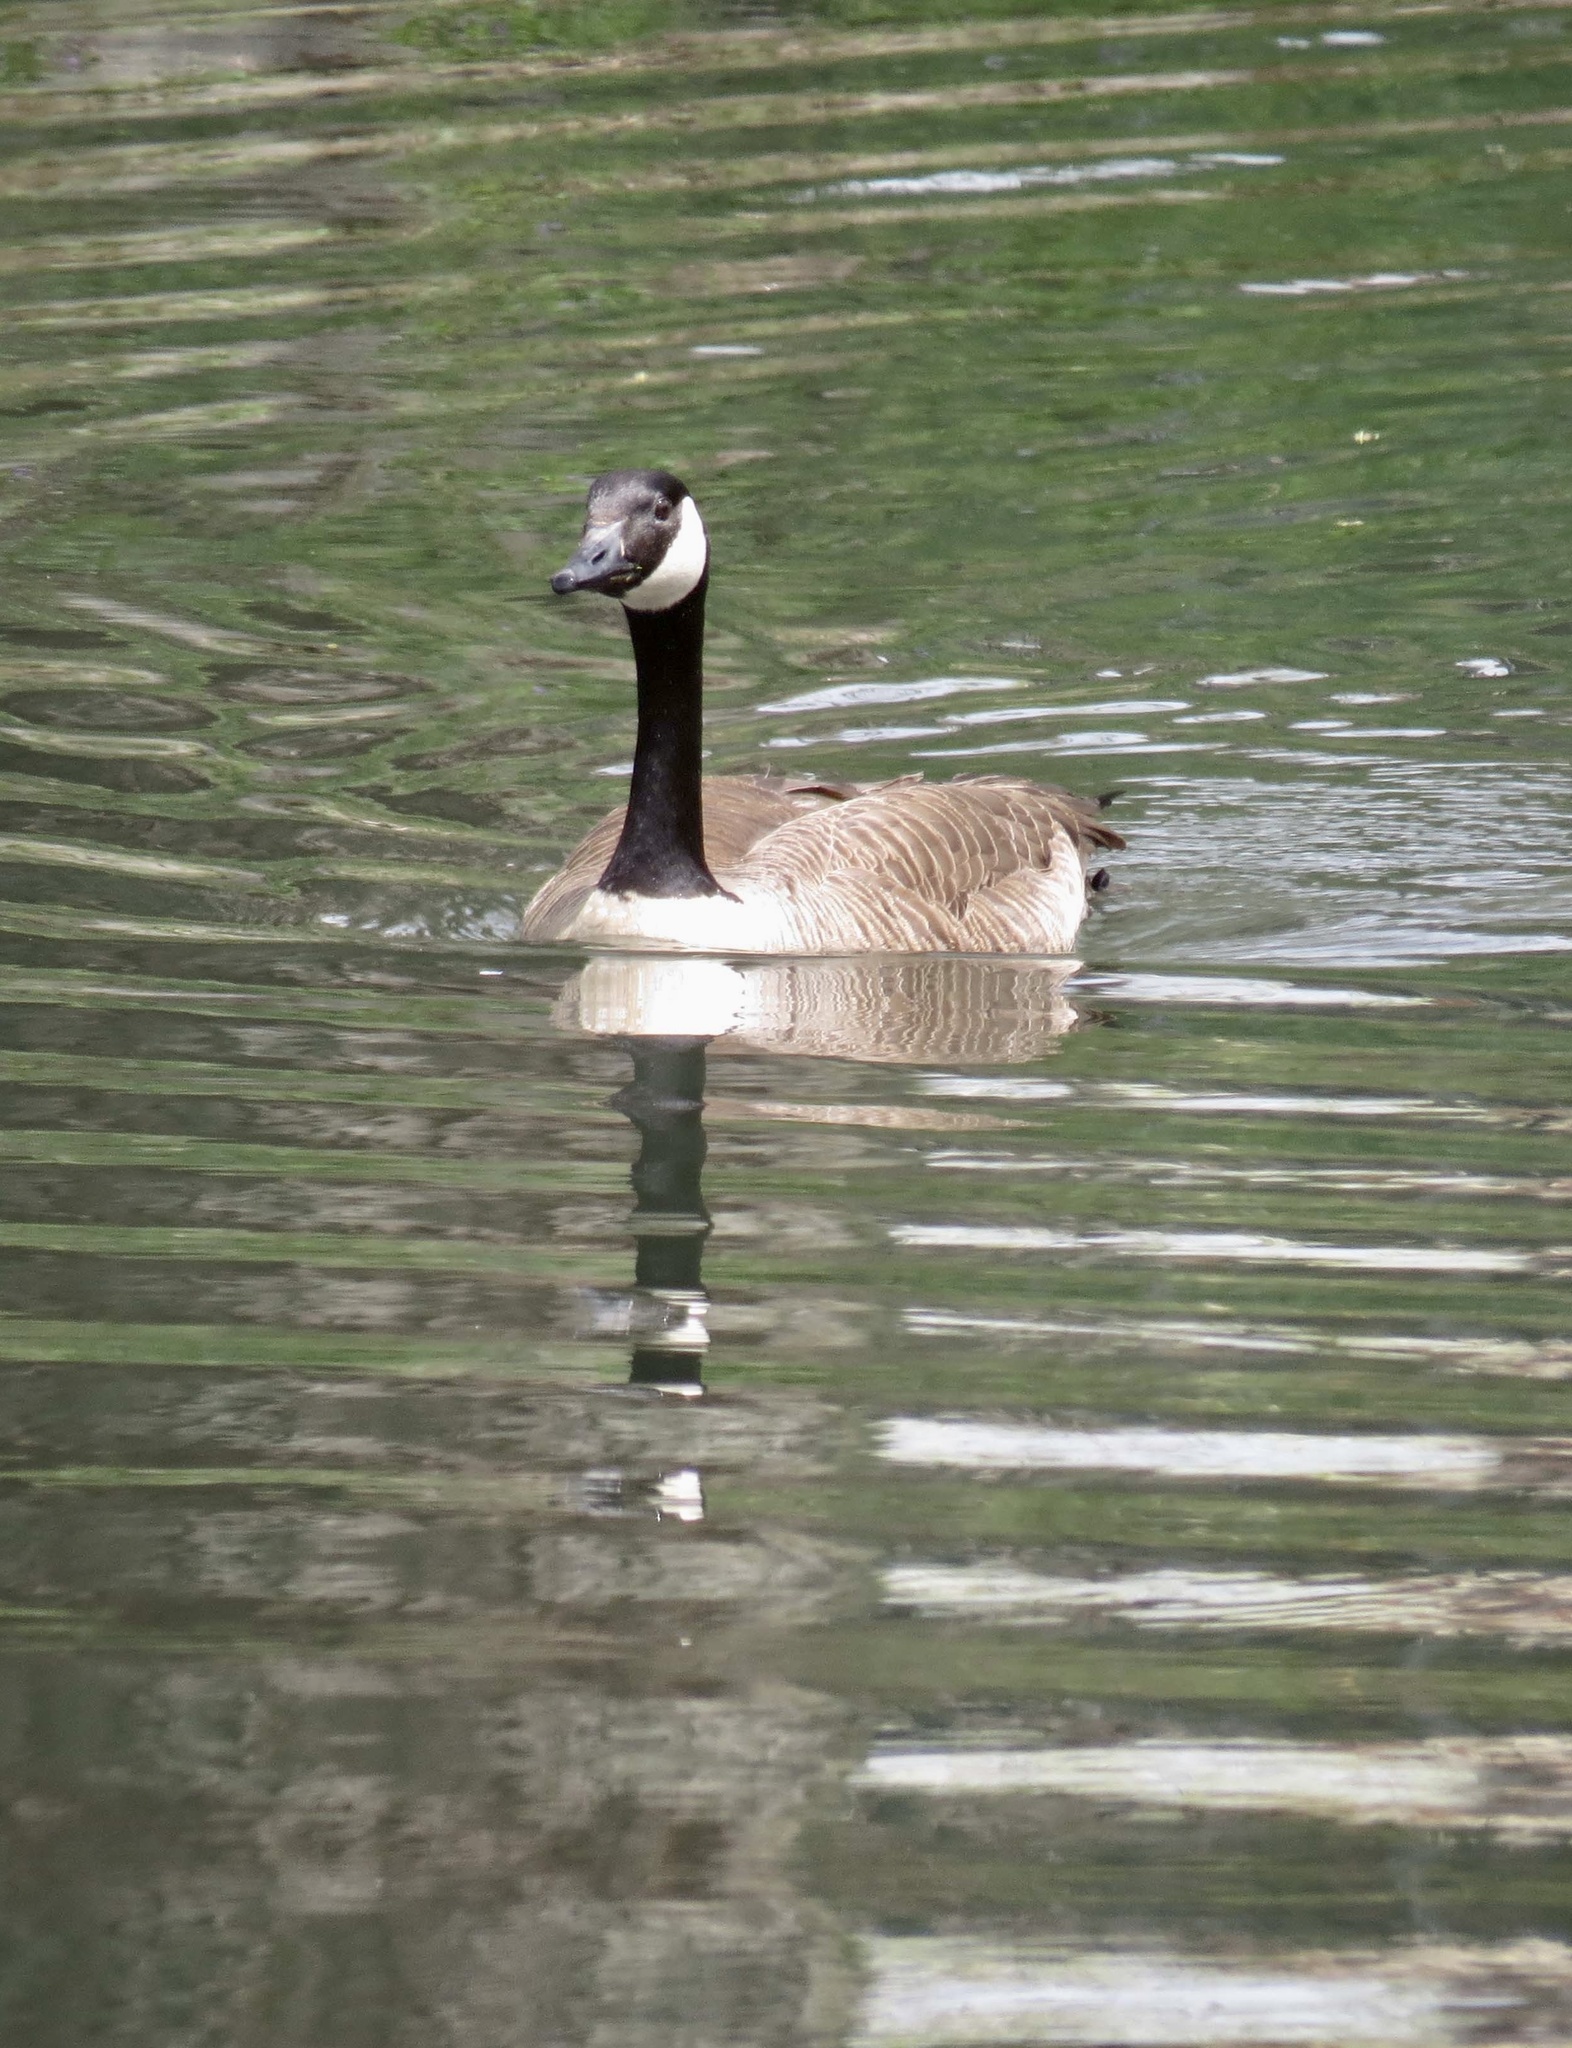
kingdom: Animalia
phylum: Chordata
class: Aves
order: Anseriformes
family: Anatidae
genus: Branta
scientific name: Branta canadensis
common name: Canada goose
